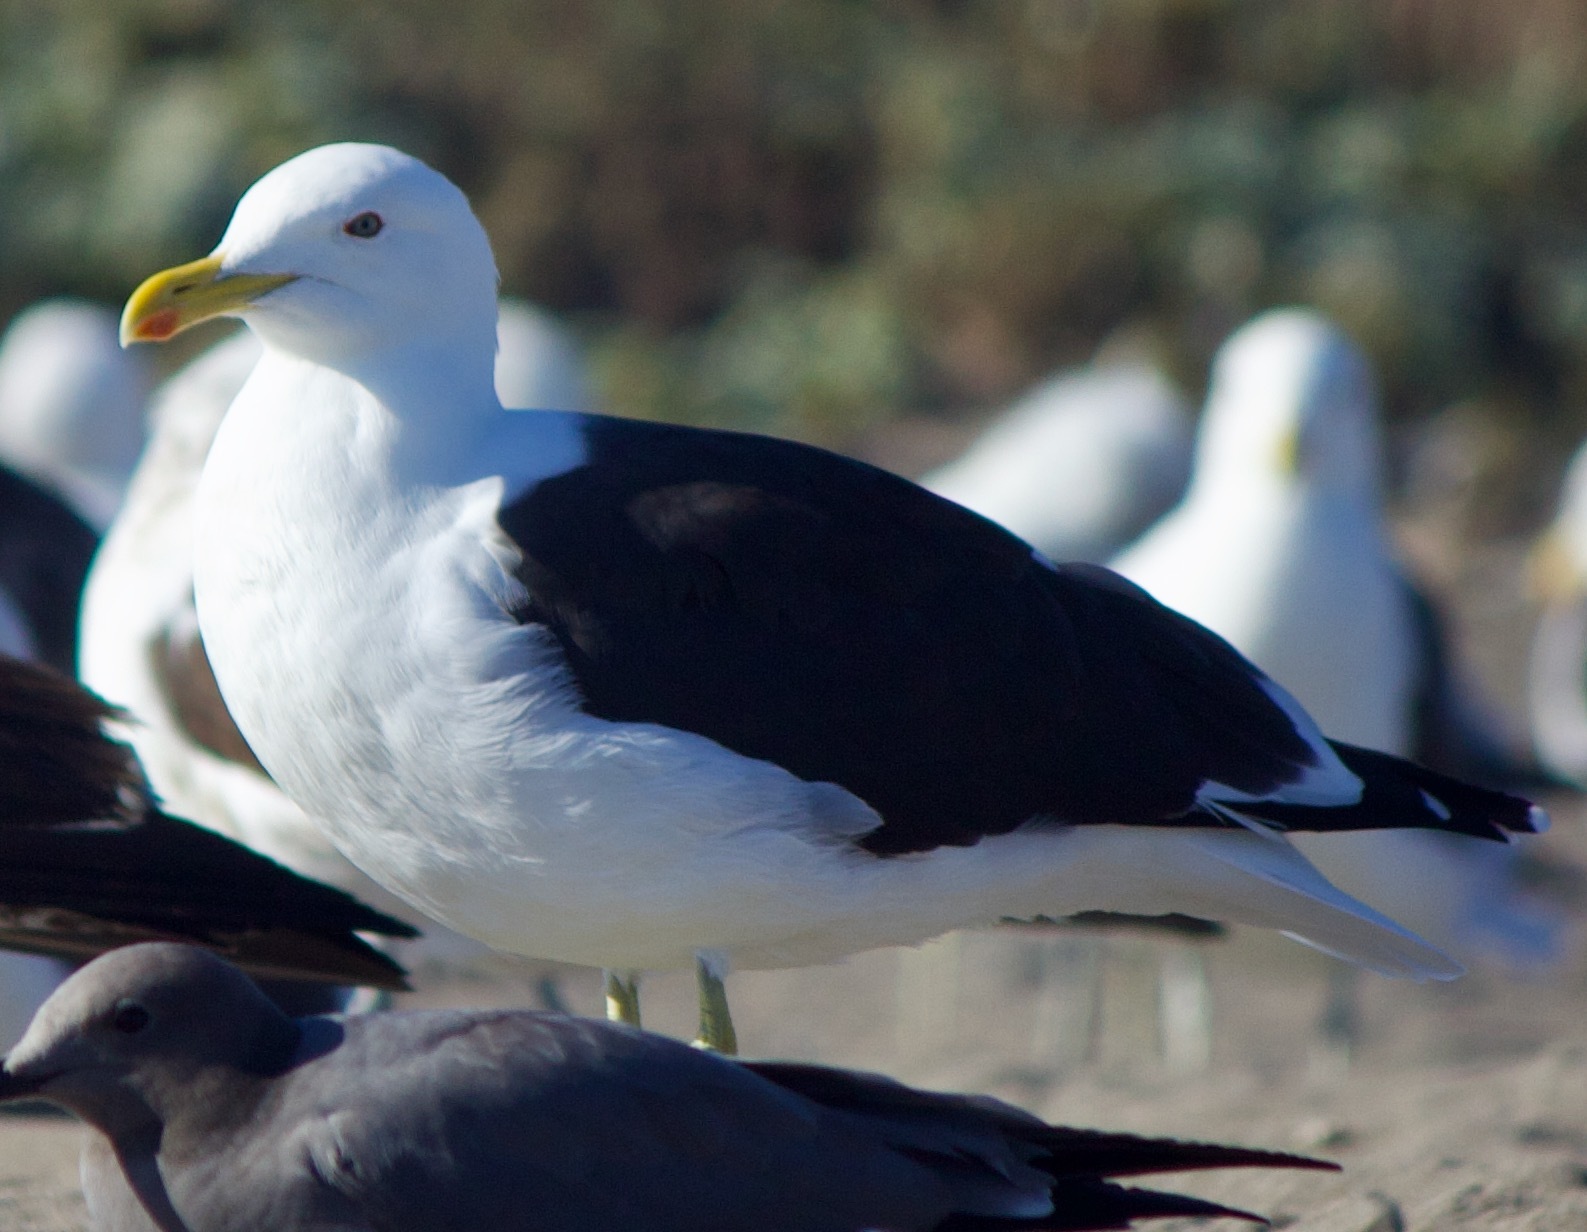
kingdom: Animalia
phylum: Chordata
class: Aves
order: Charadriiformes
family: Laridae
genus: Larus
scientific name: Larus dominicanus
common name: Kelp gull
